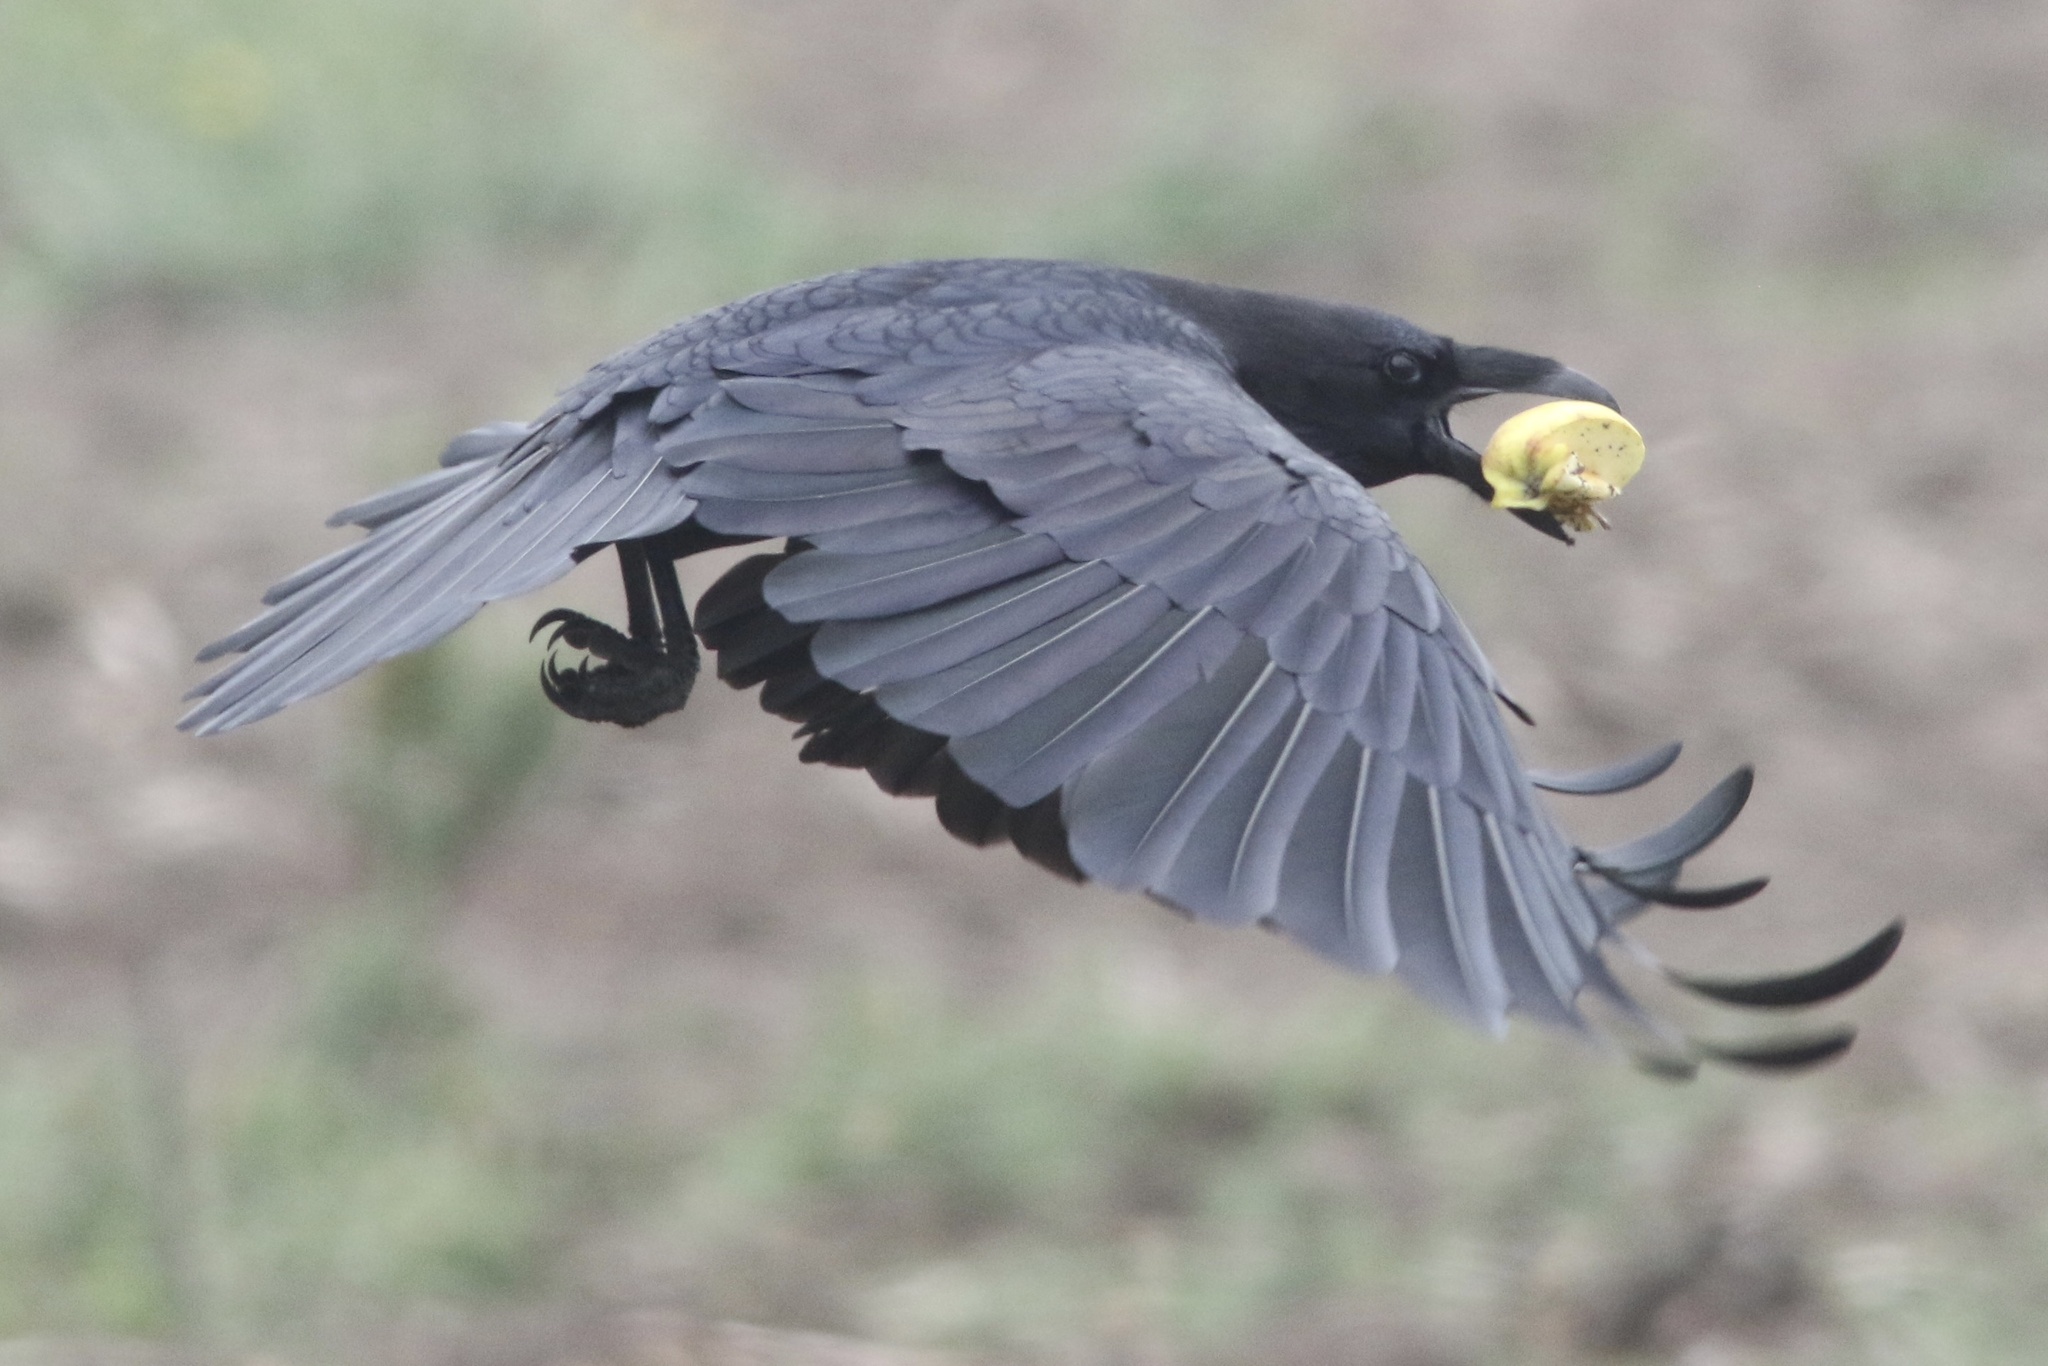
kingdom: Animalia
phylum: Chordata
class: Aves
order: Passeriformes
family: Corvidae
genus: Corvus
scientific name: Corvus corax
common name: Common raven
